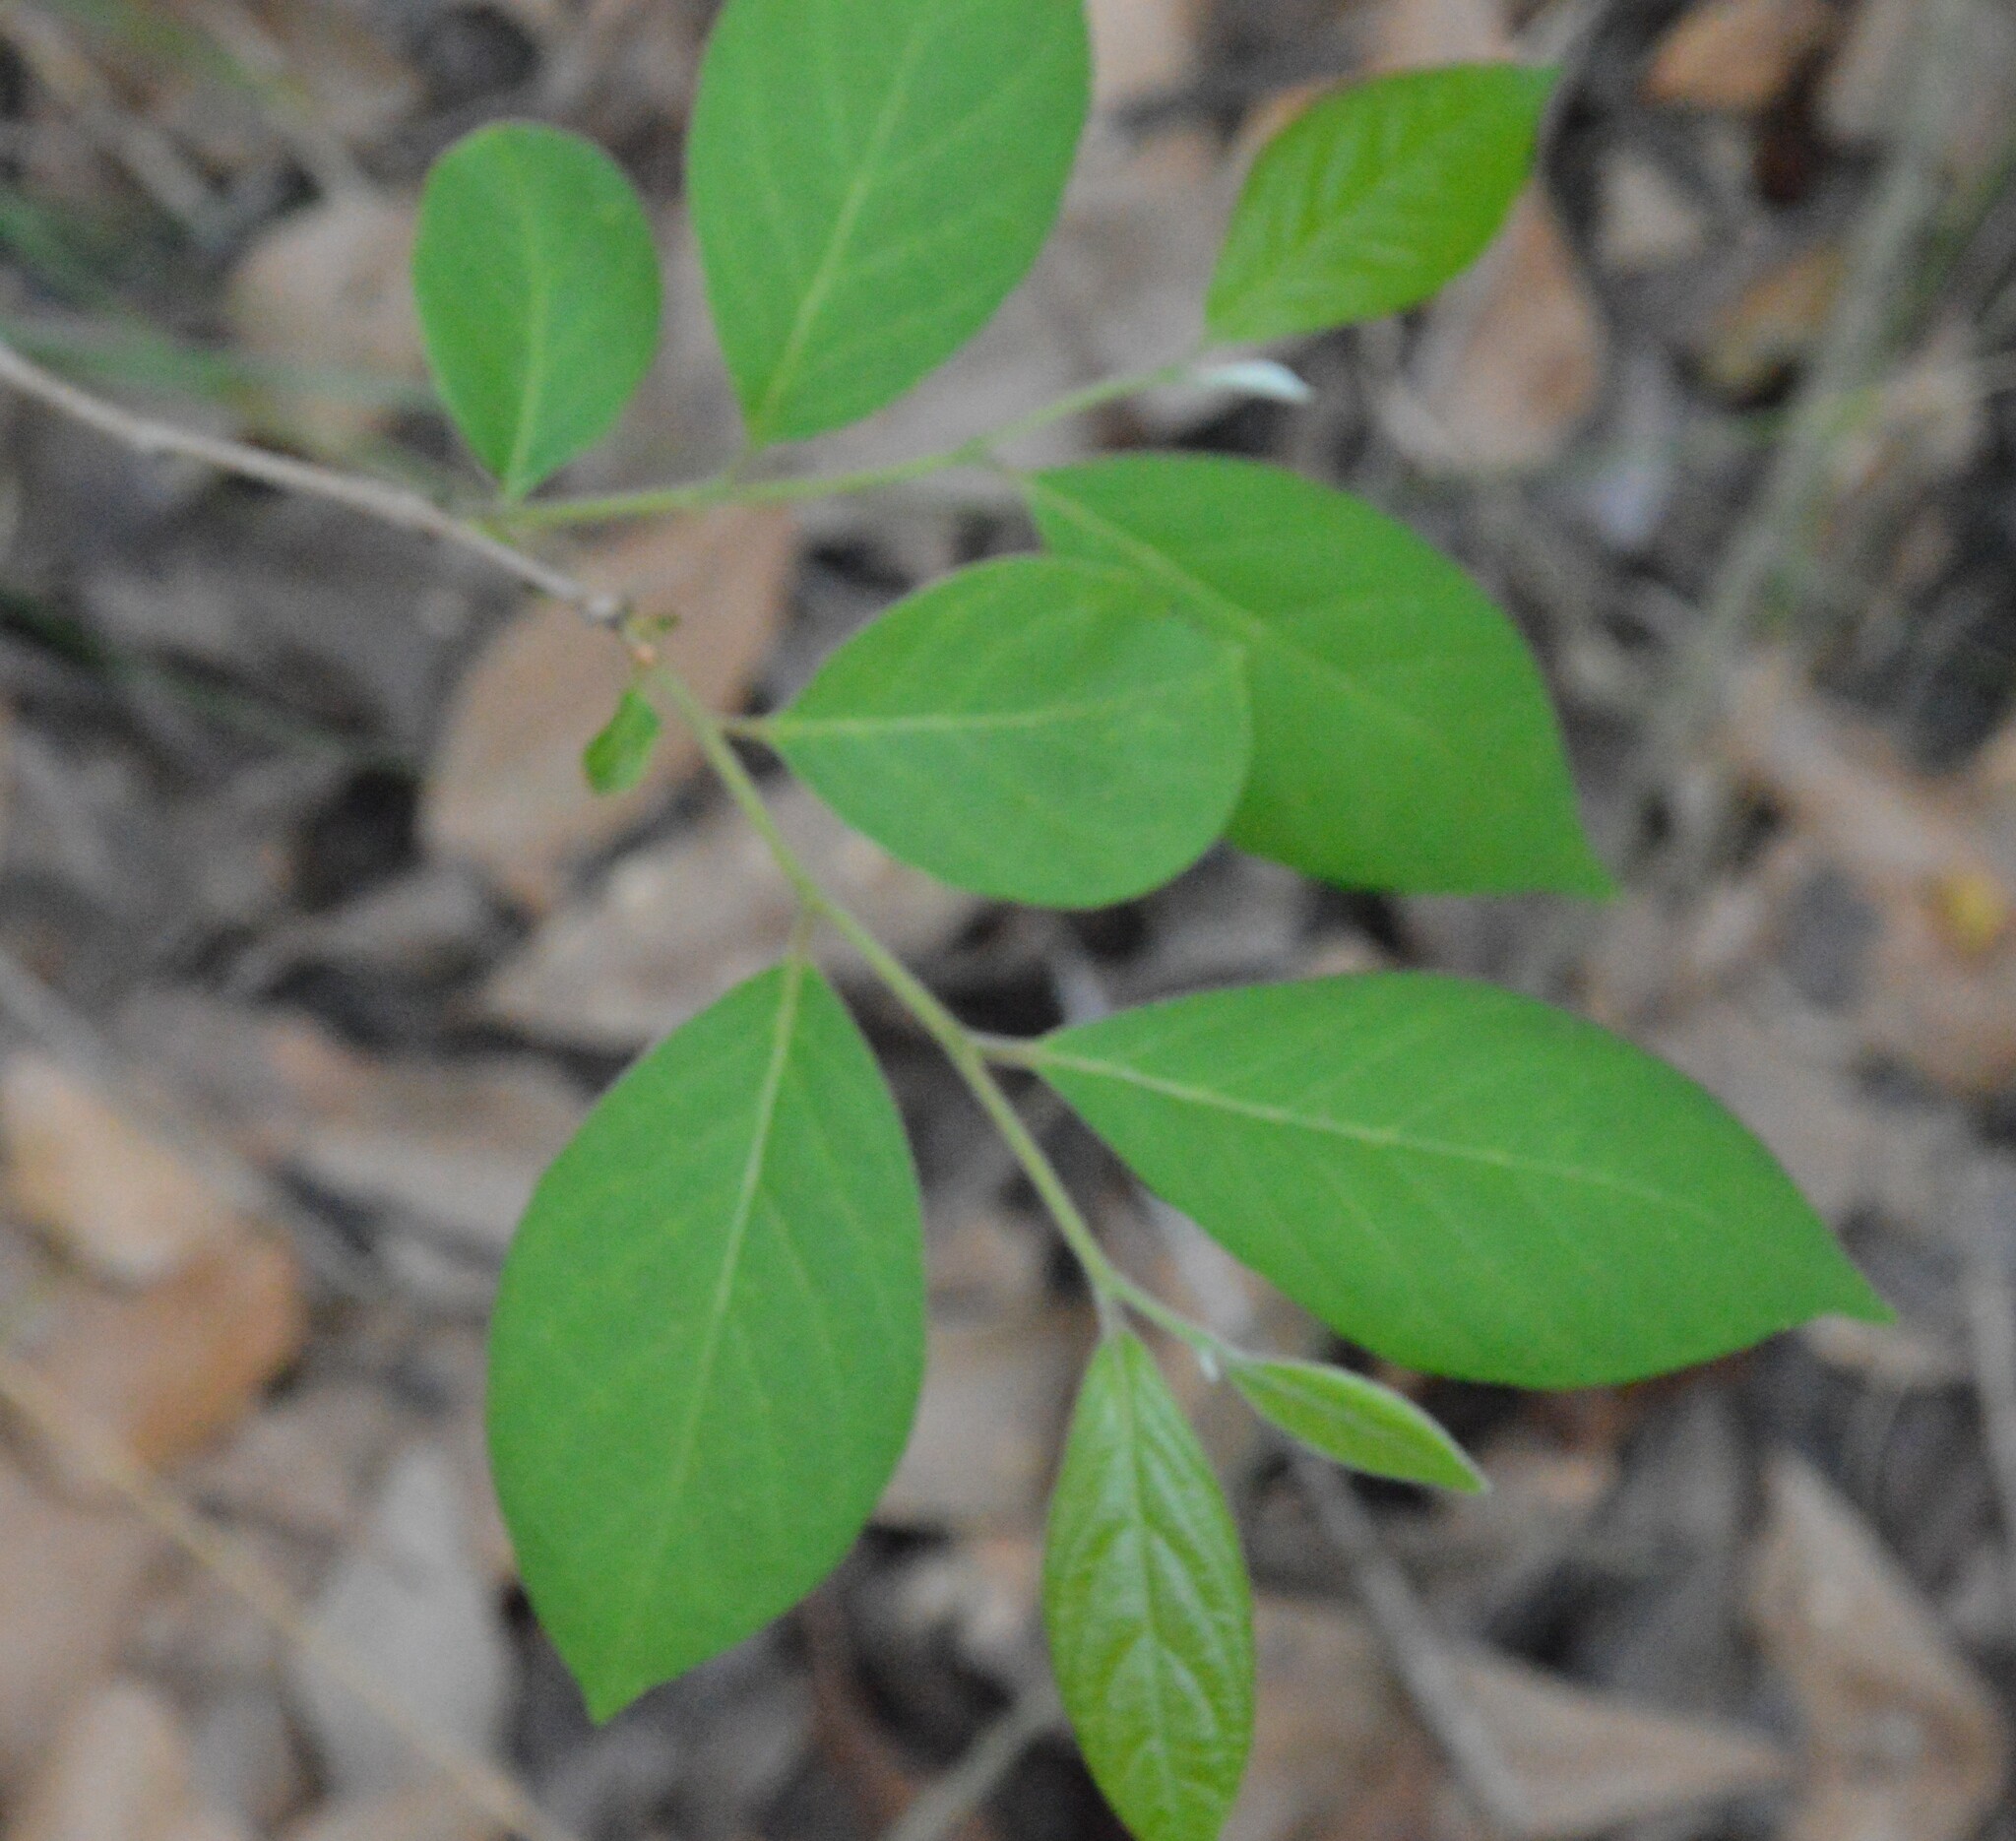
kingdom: Plantae
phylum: Tracheophyta
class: Magnoliopsida
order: Ericales
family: Ebenaceae
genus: Diospyros
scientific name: Diospyros virginiana
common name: Persimmon
